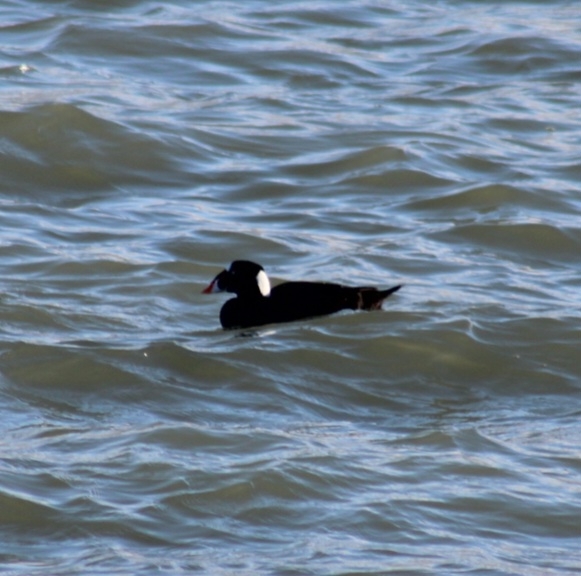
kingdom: Animalia
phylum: Chordata
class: Aves
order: Anseriformes
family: Anatidae
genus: Melanitta
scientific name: Melanitta perspicillata
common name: Surf scoter
